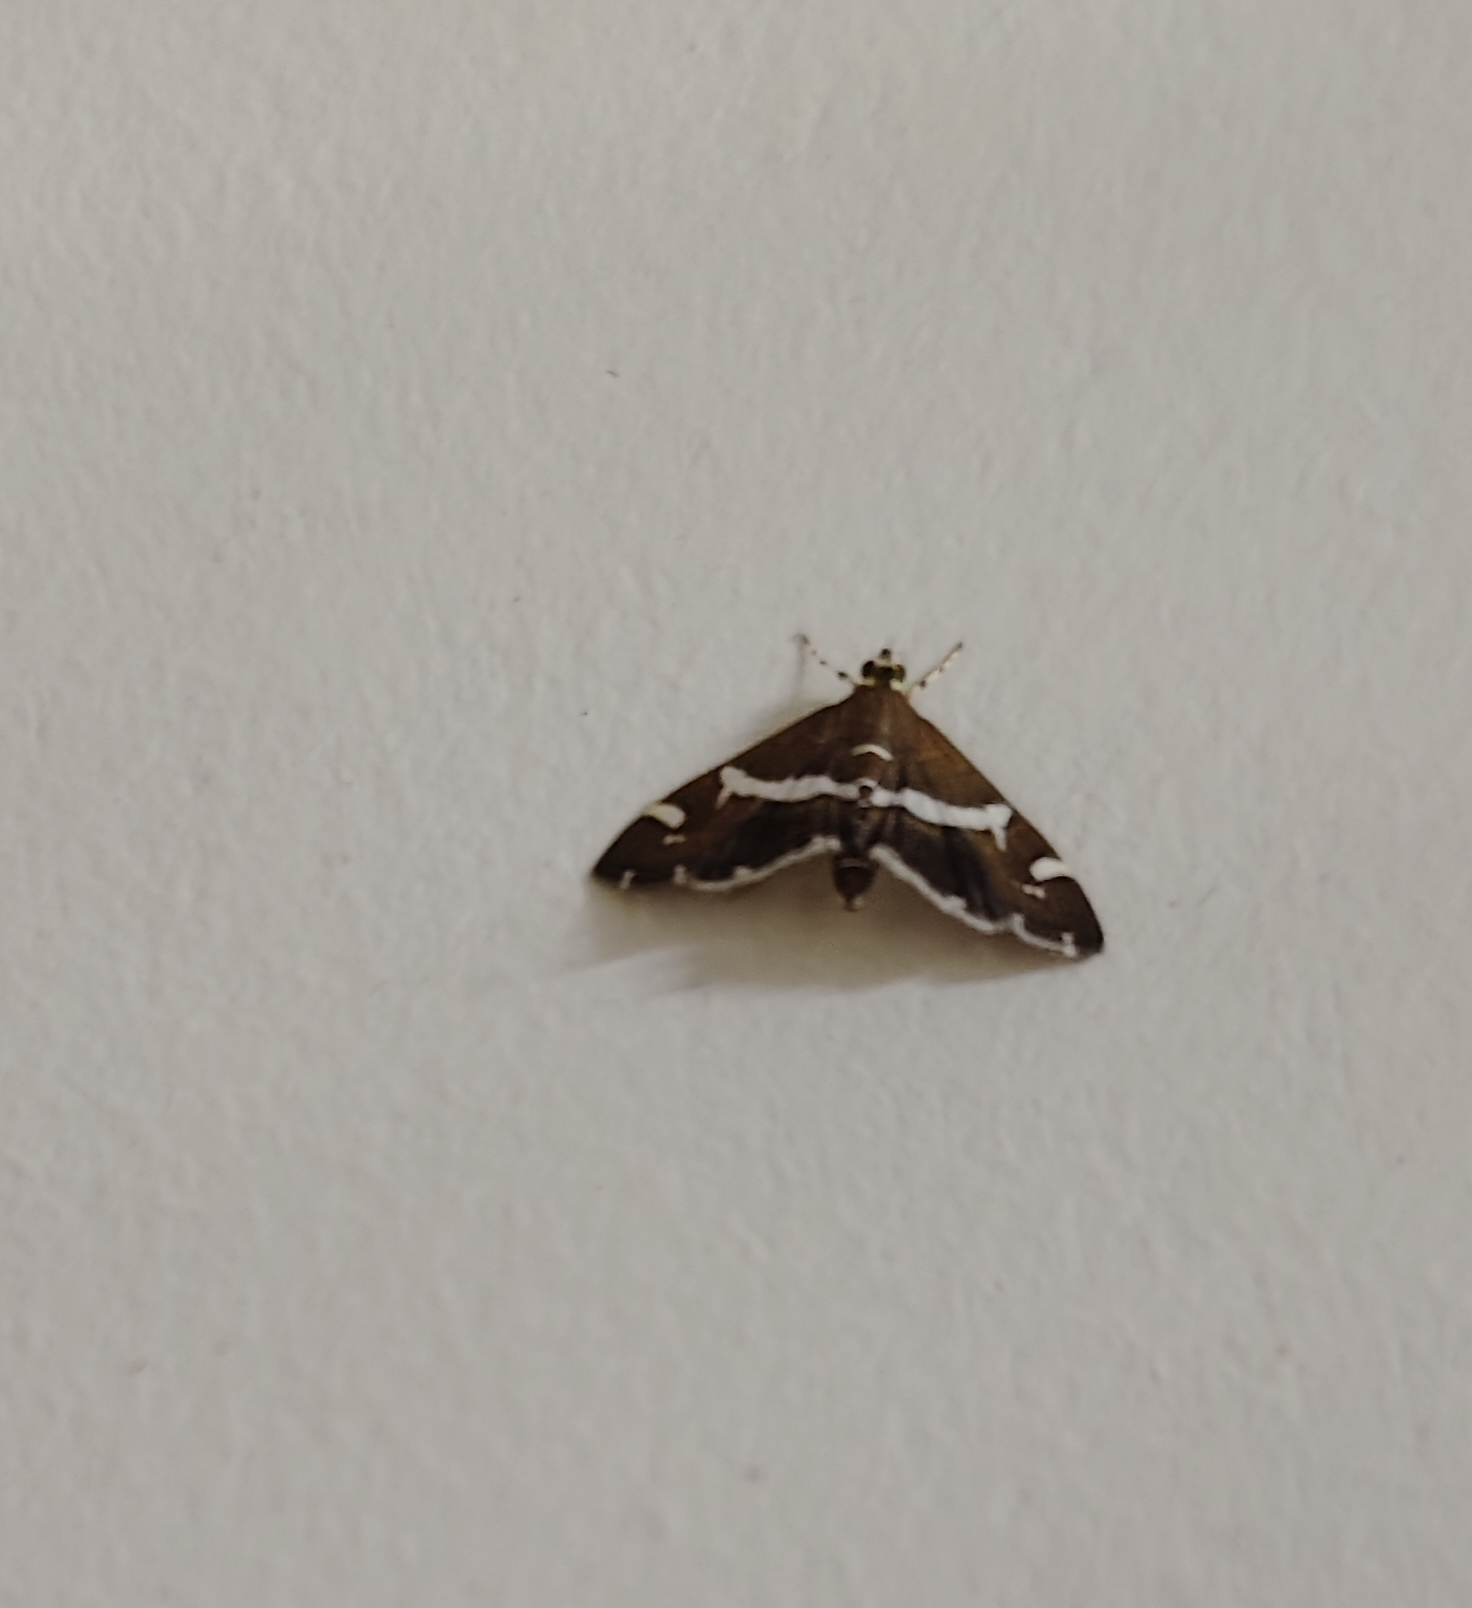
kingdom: Animalia
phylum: Arthropoda
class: Insecta
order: Lepidoptera
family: Crambidae
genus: Spoladea
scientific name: Spoladea recurvalis
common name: Beet webworm moth
